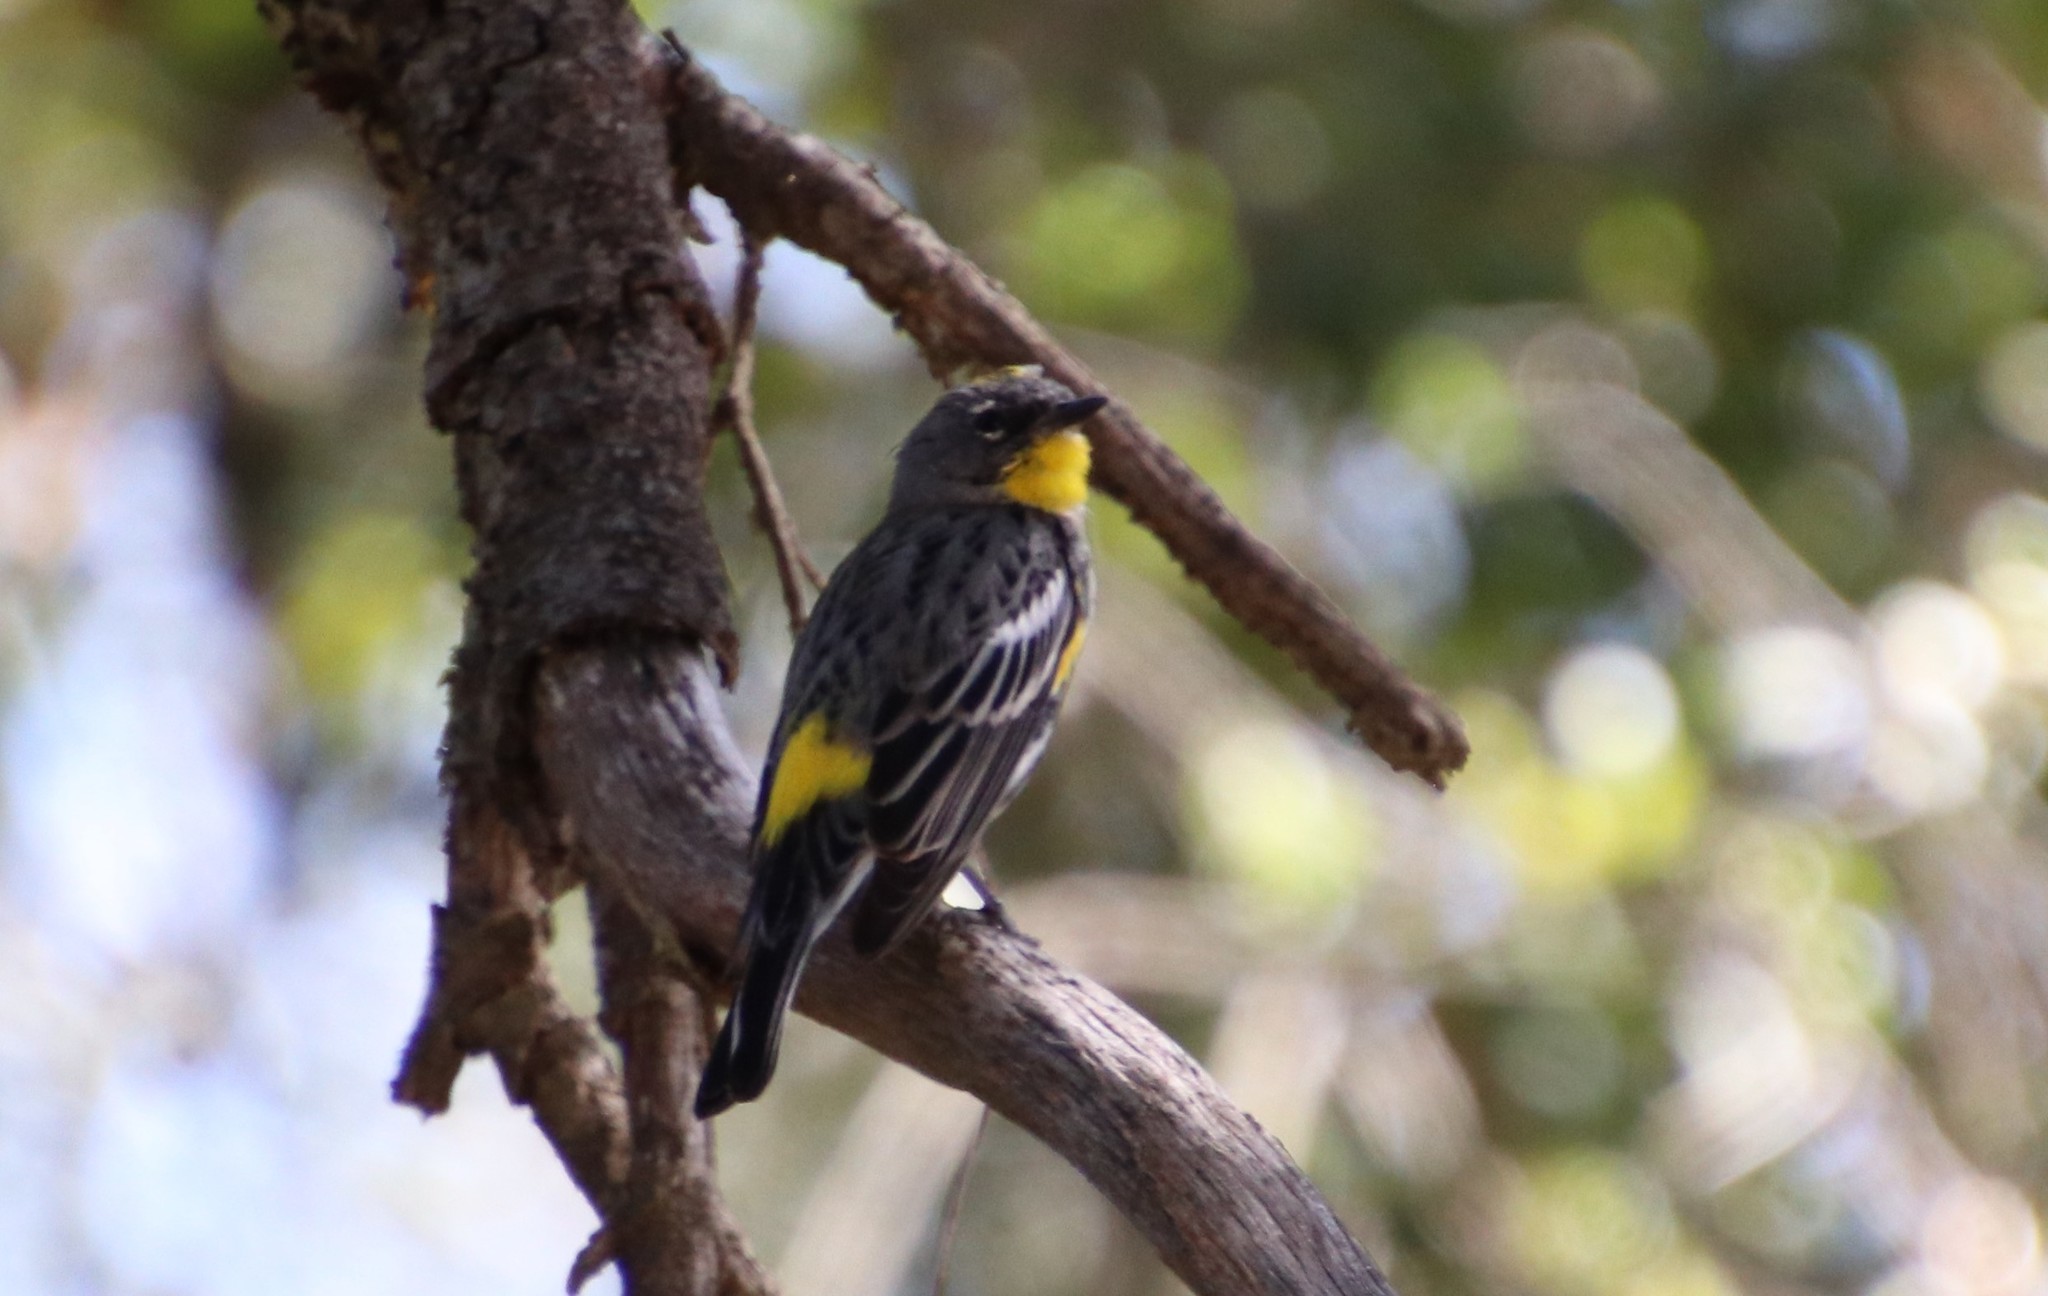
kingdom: Animalia
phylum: Chordata
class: Aves
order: Passeriformes
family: Parulidae
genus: Setophaga
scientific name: Setophaga auduboni
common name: Audubon's warbler
